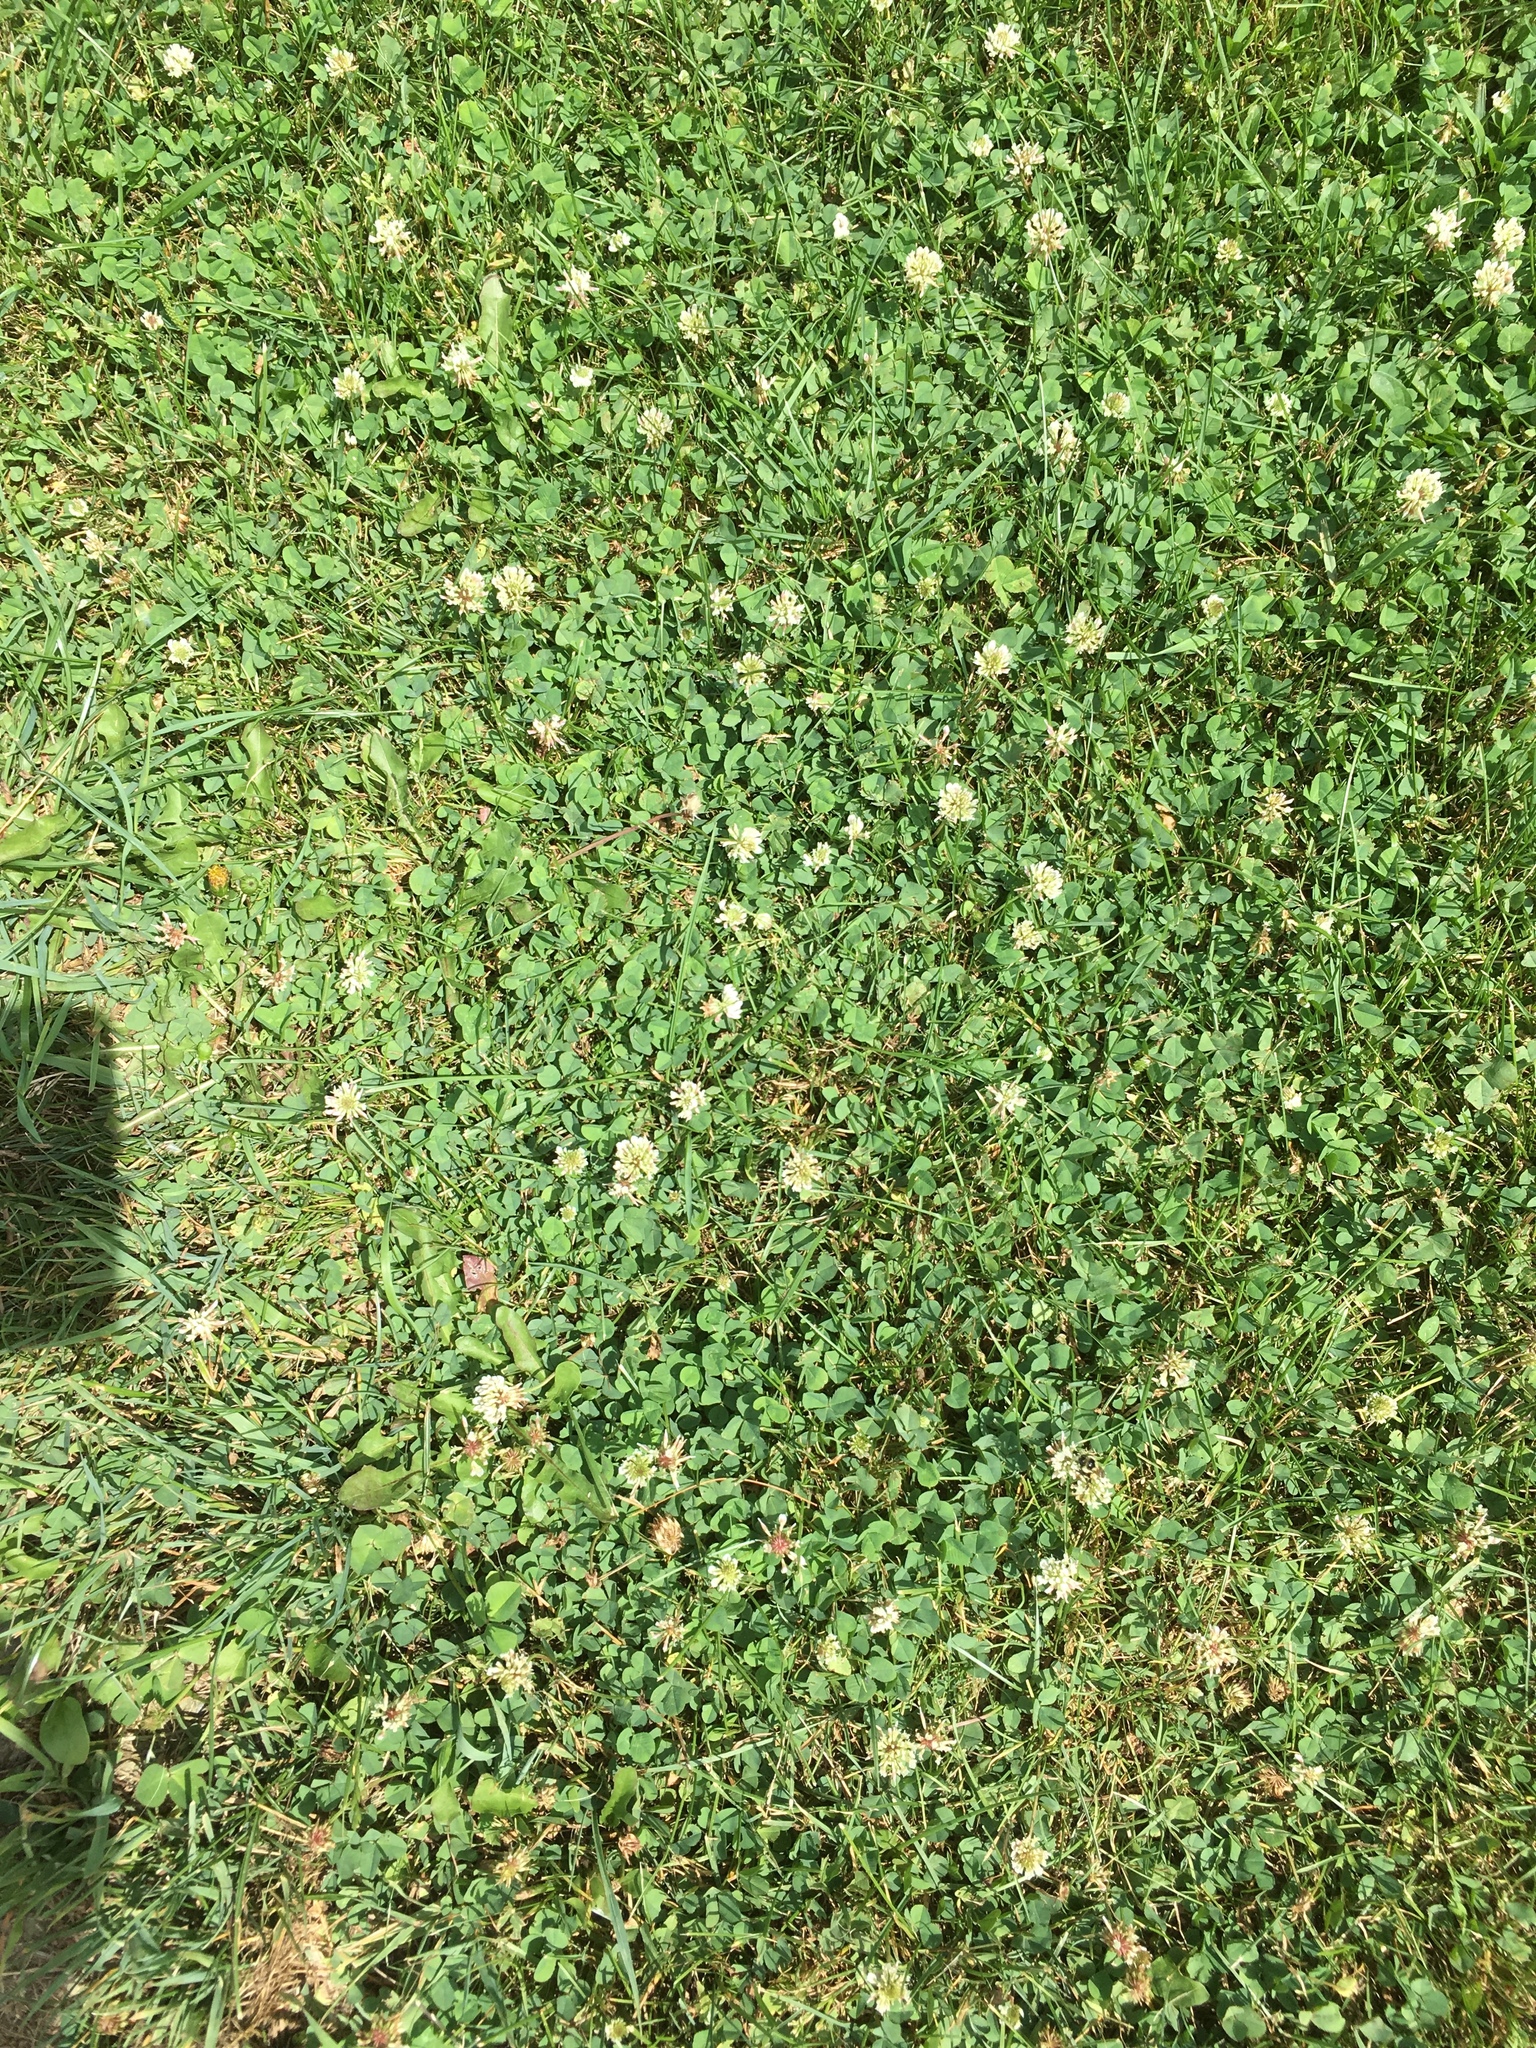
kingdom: Plantae
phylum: Tracheophyta
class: Magnoliopsida
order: Fabales
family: Fabaceae
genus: Trifolium
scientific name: Trifolium repens
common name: White clover
